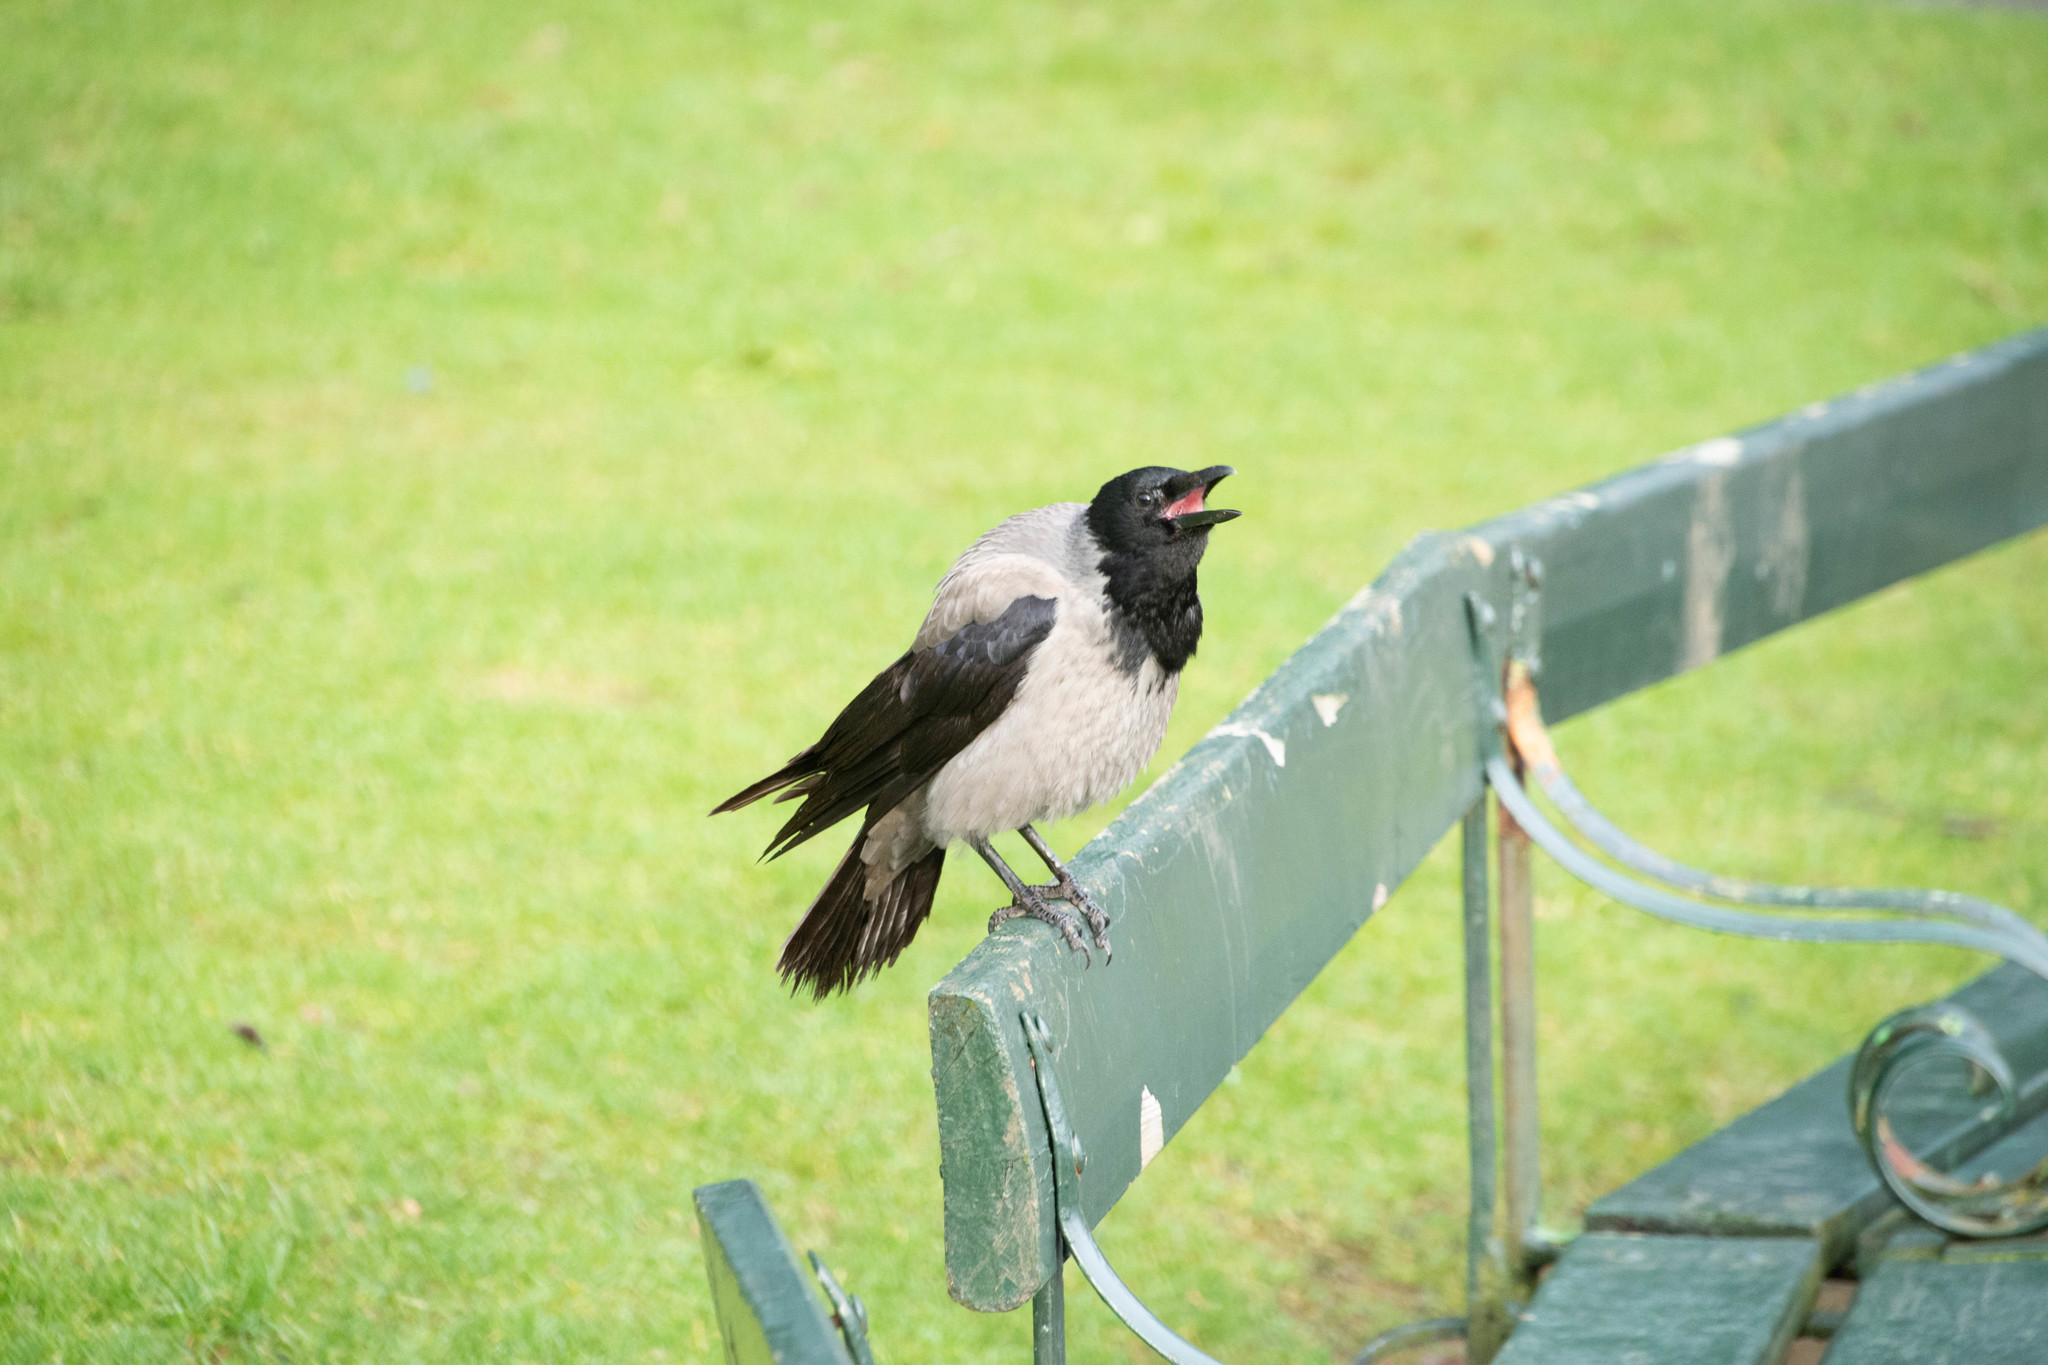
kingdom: Animalia
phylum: Chordata
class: Aves
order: Passeriformes
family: Corvidae
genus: Corvus
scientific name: Corvus cornix
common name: Hooded crow
